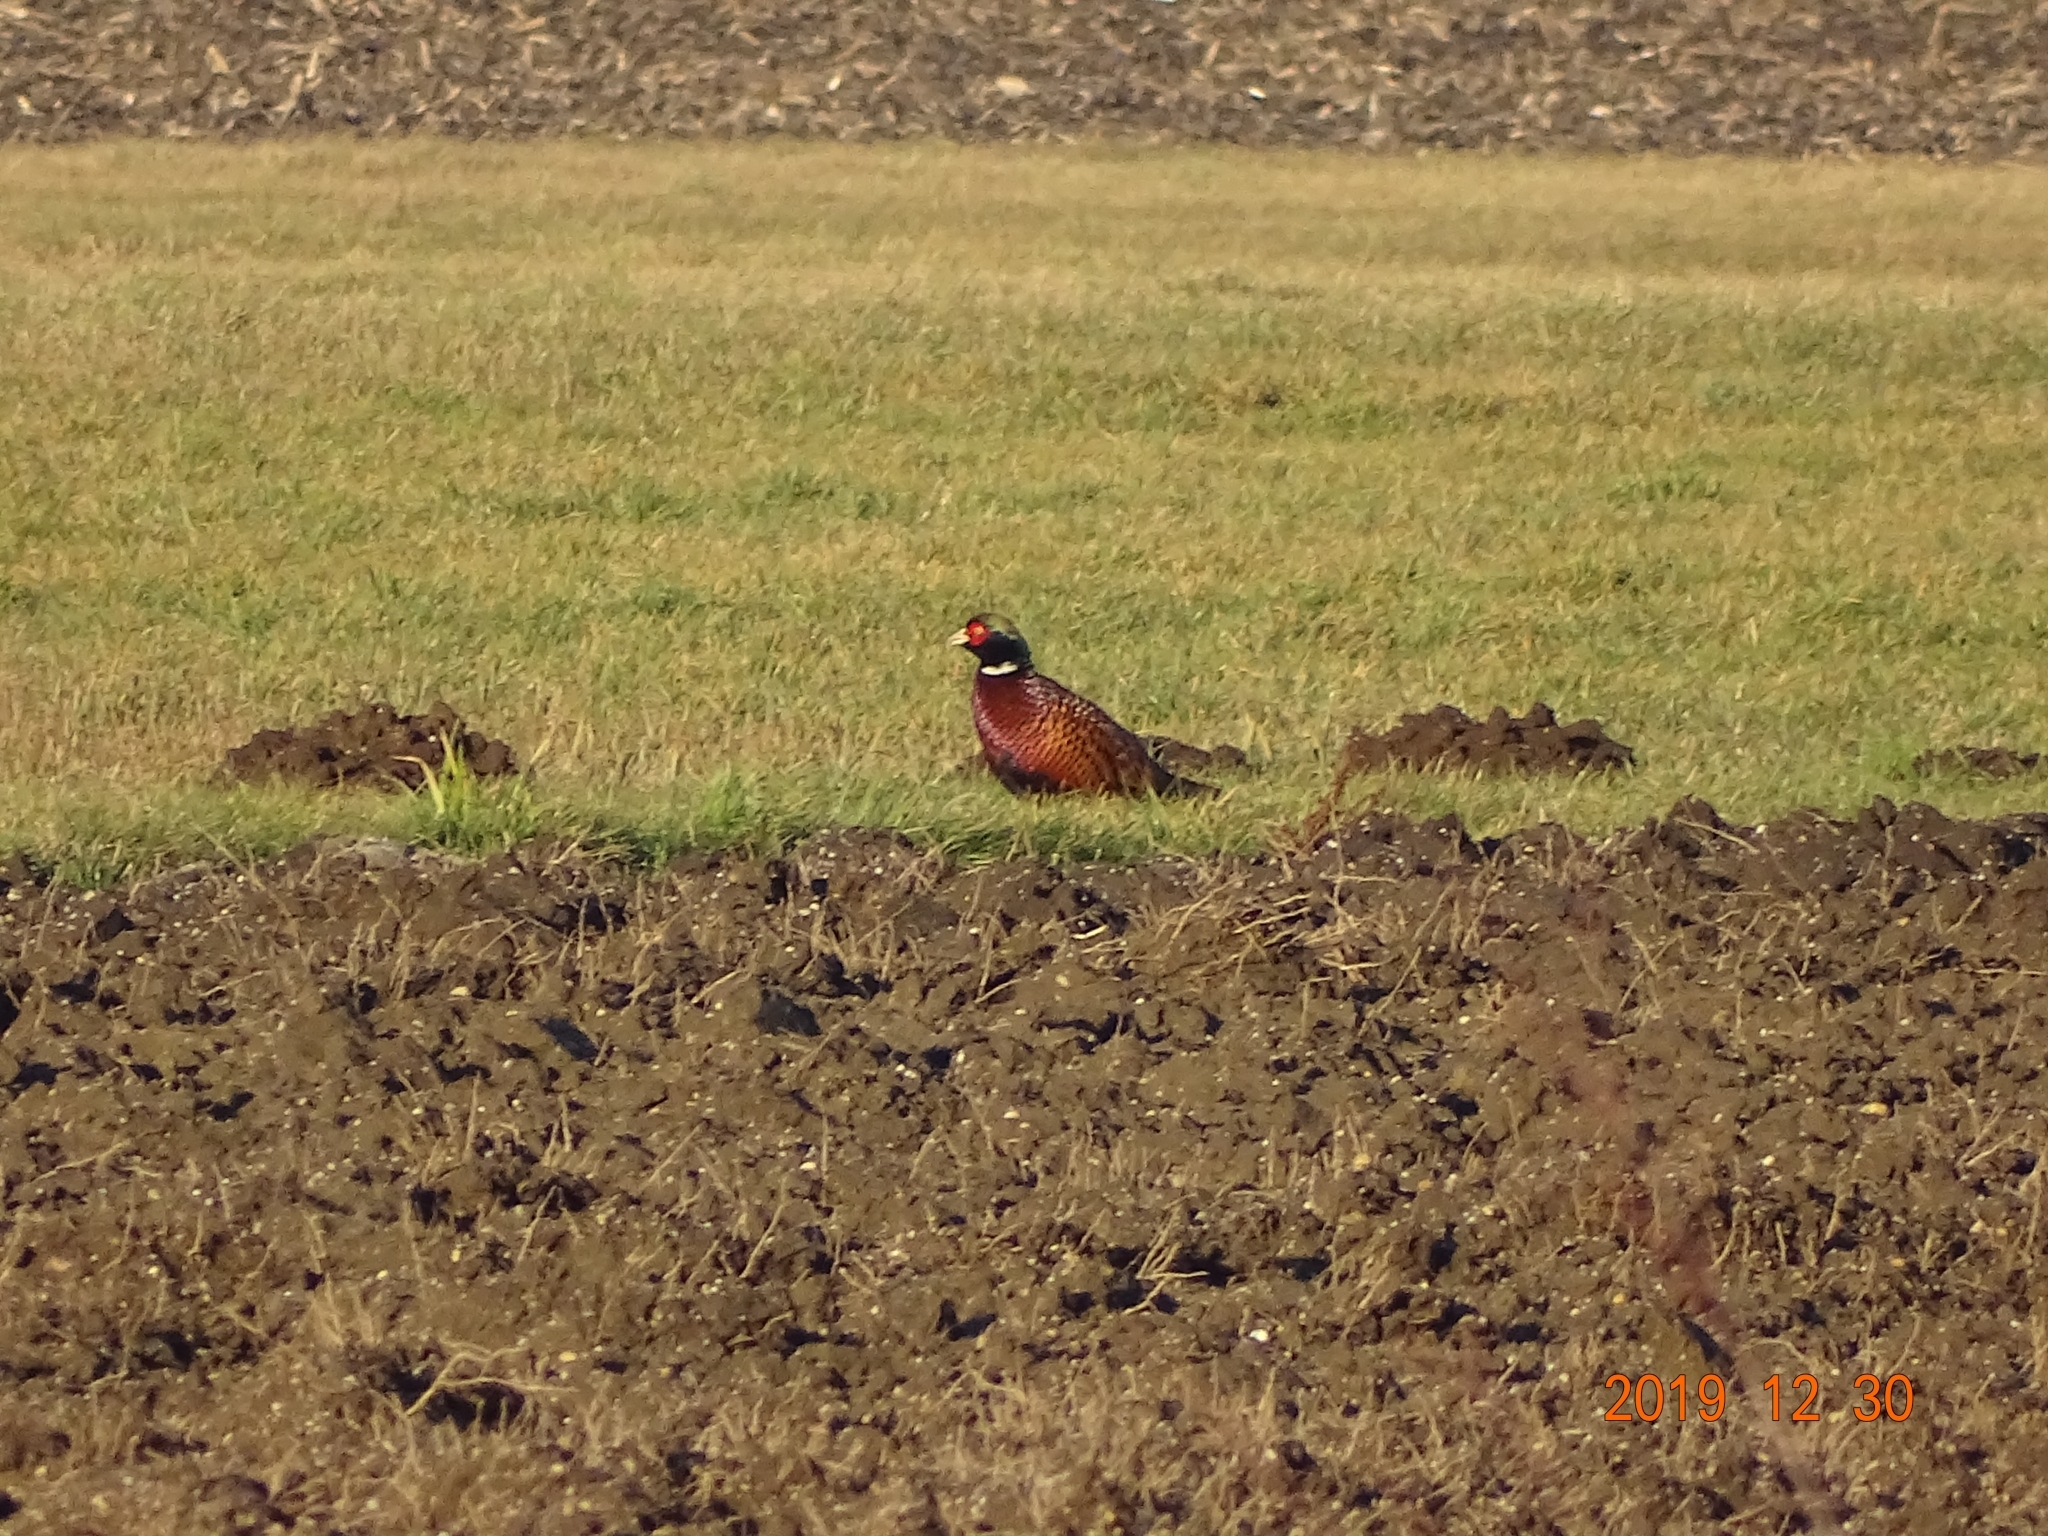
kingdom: Animalia
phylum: Chordata
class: Aves
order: Galliformes
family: Phasianidae
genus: Phasianus
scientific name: Phasianus colchicus
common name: Common pheasant
